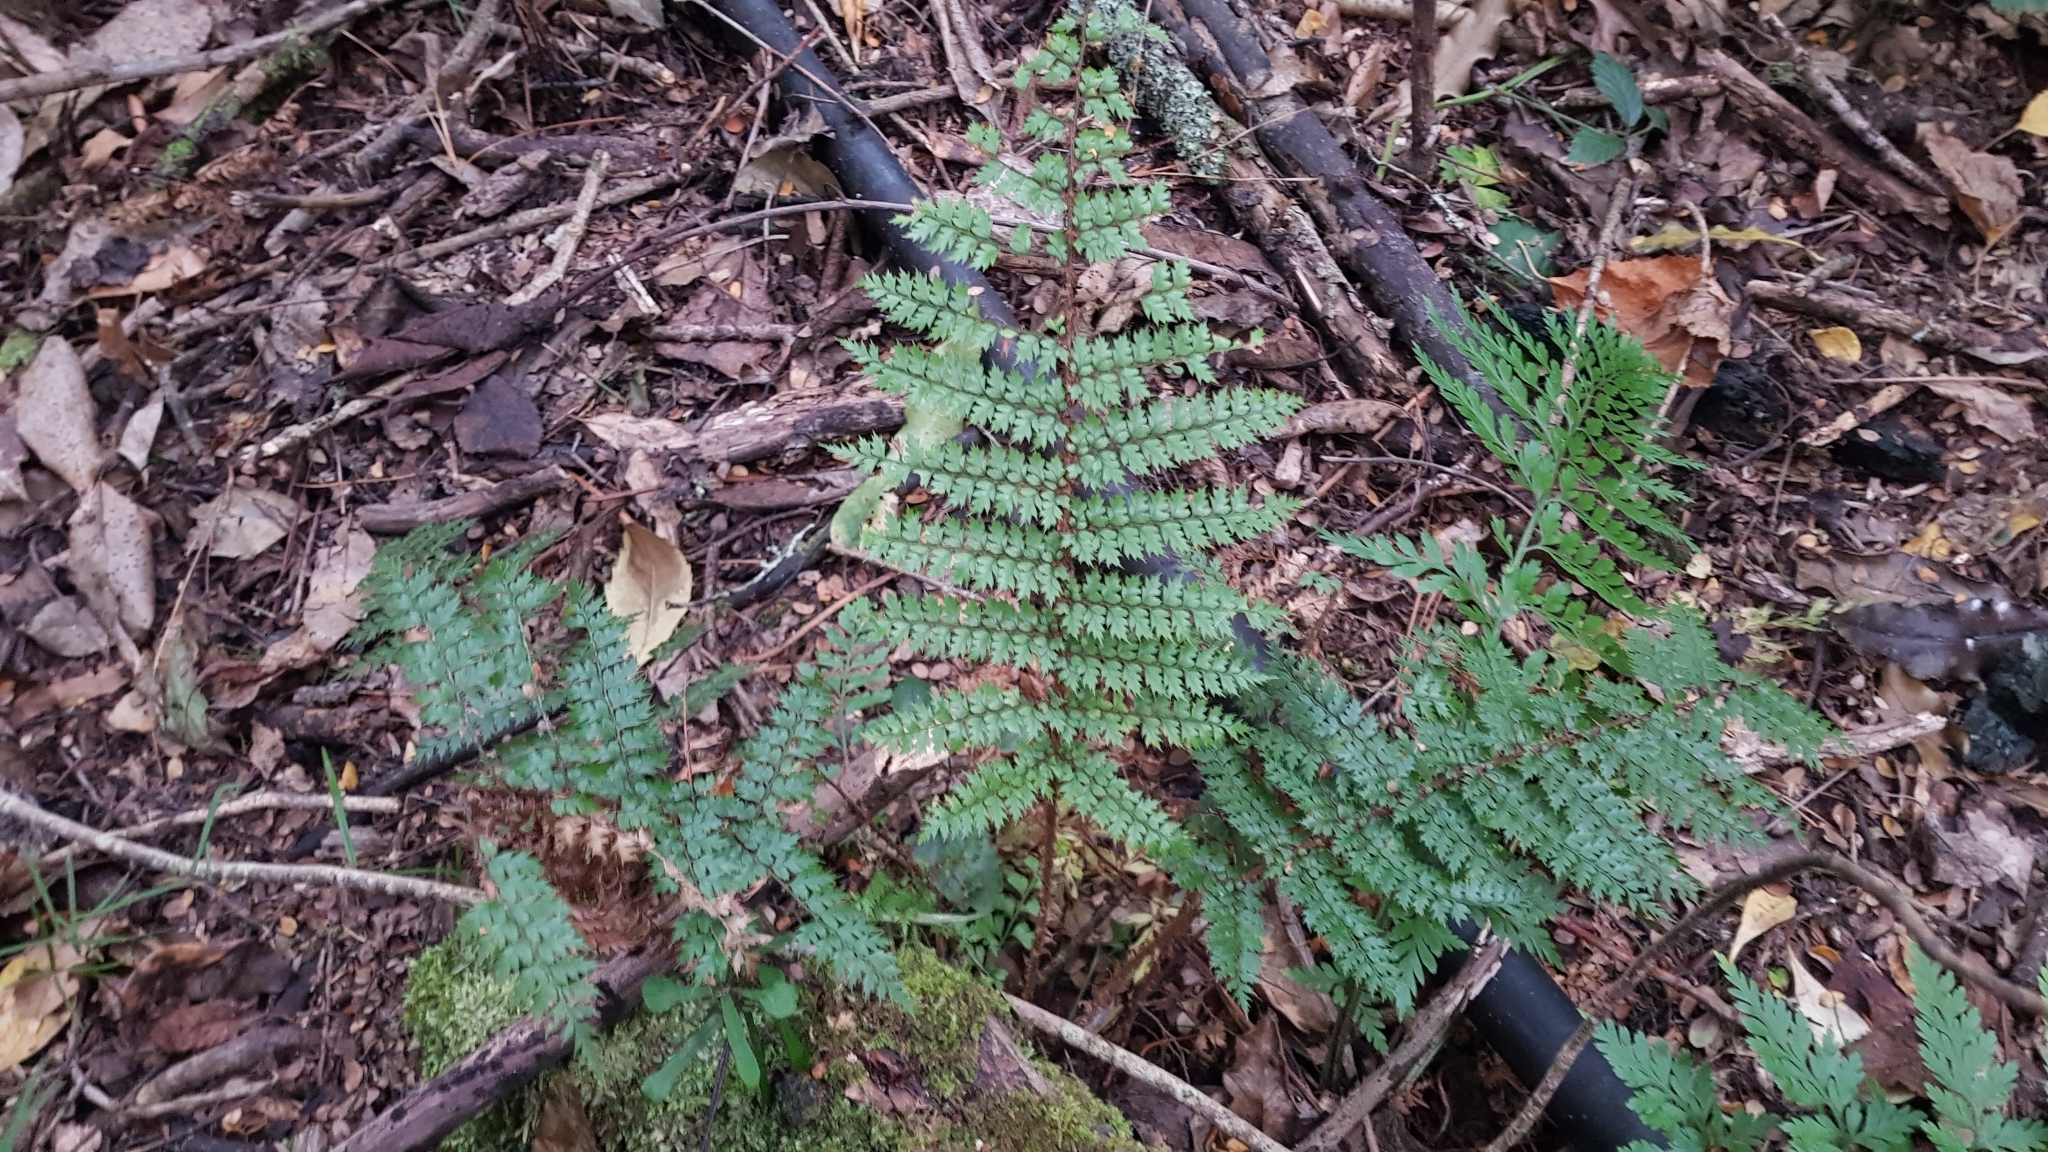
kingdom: Plantae
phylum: Tracheophyta
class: Polypodiopsida
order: Polypodiales
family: Dryopteridaceae
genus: Polystichum
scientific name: Polystichum vestitum
